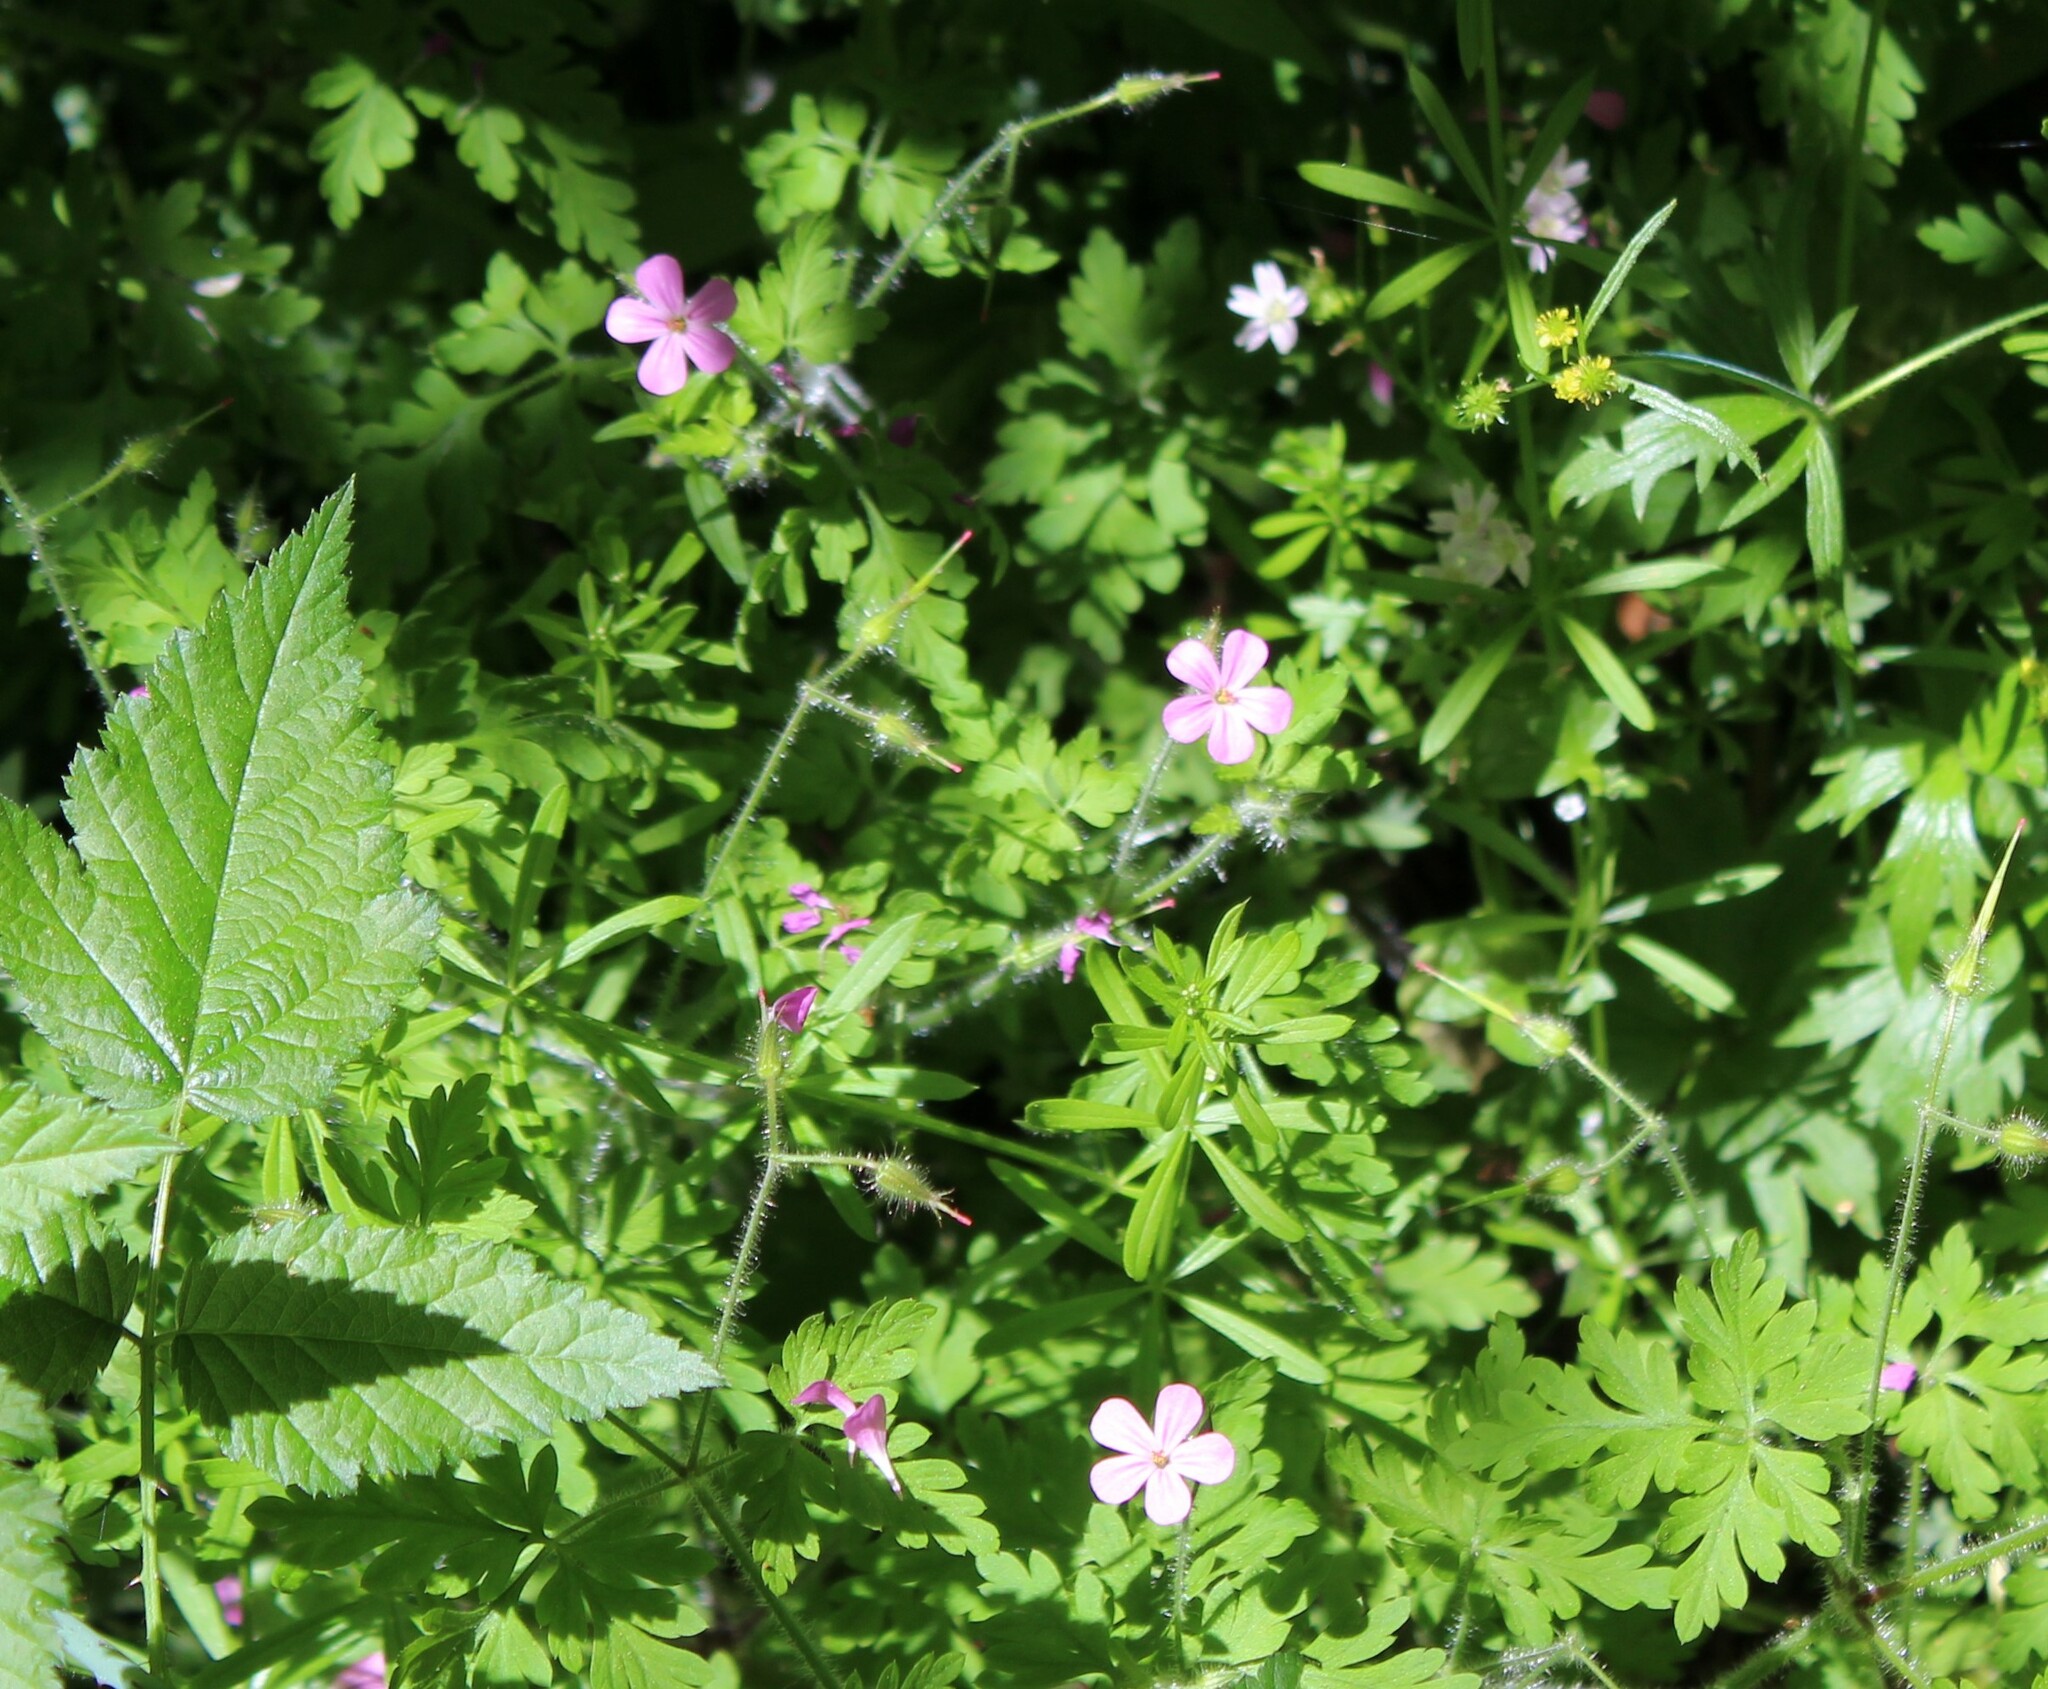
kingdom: Plantae
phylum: Tracheophyta
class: Magnoliopsida
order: Geraniales
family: Geraniaceae
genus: Geranium
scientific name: Geranium robertianum
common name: Herb-robert
